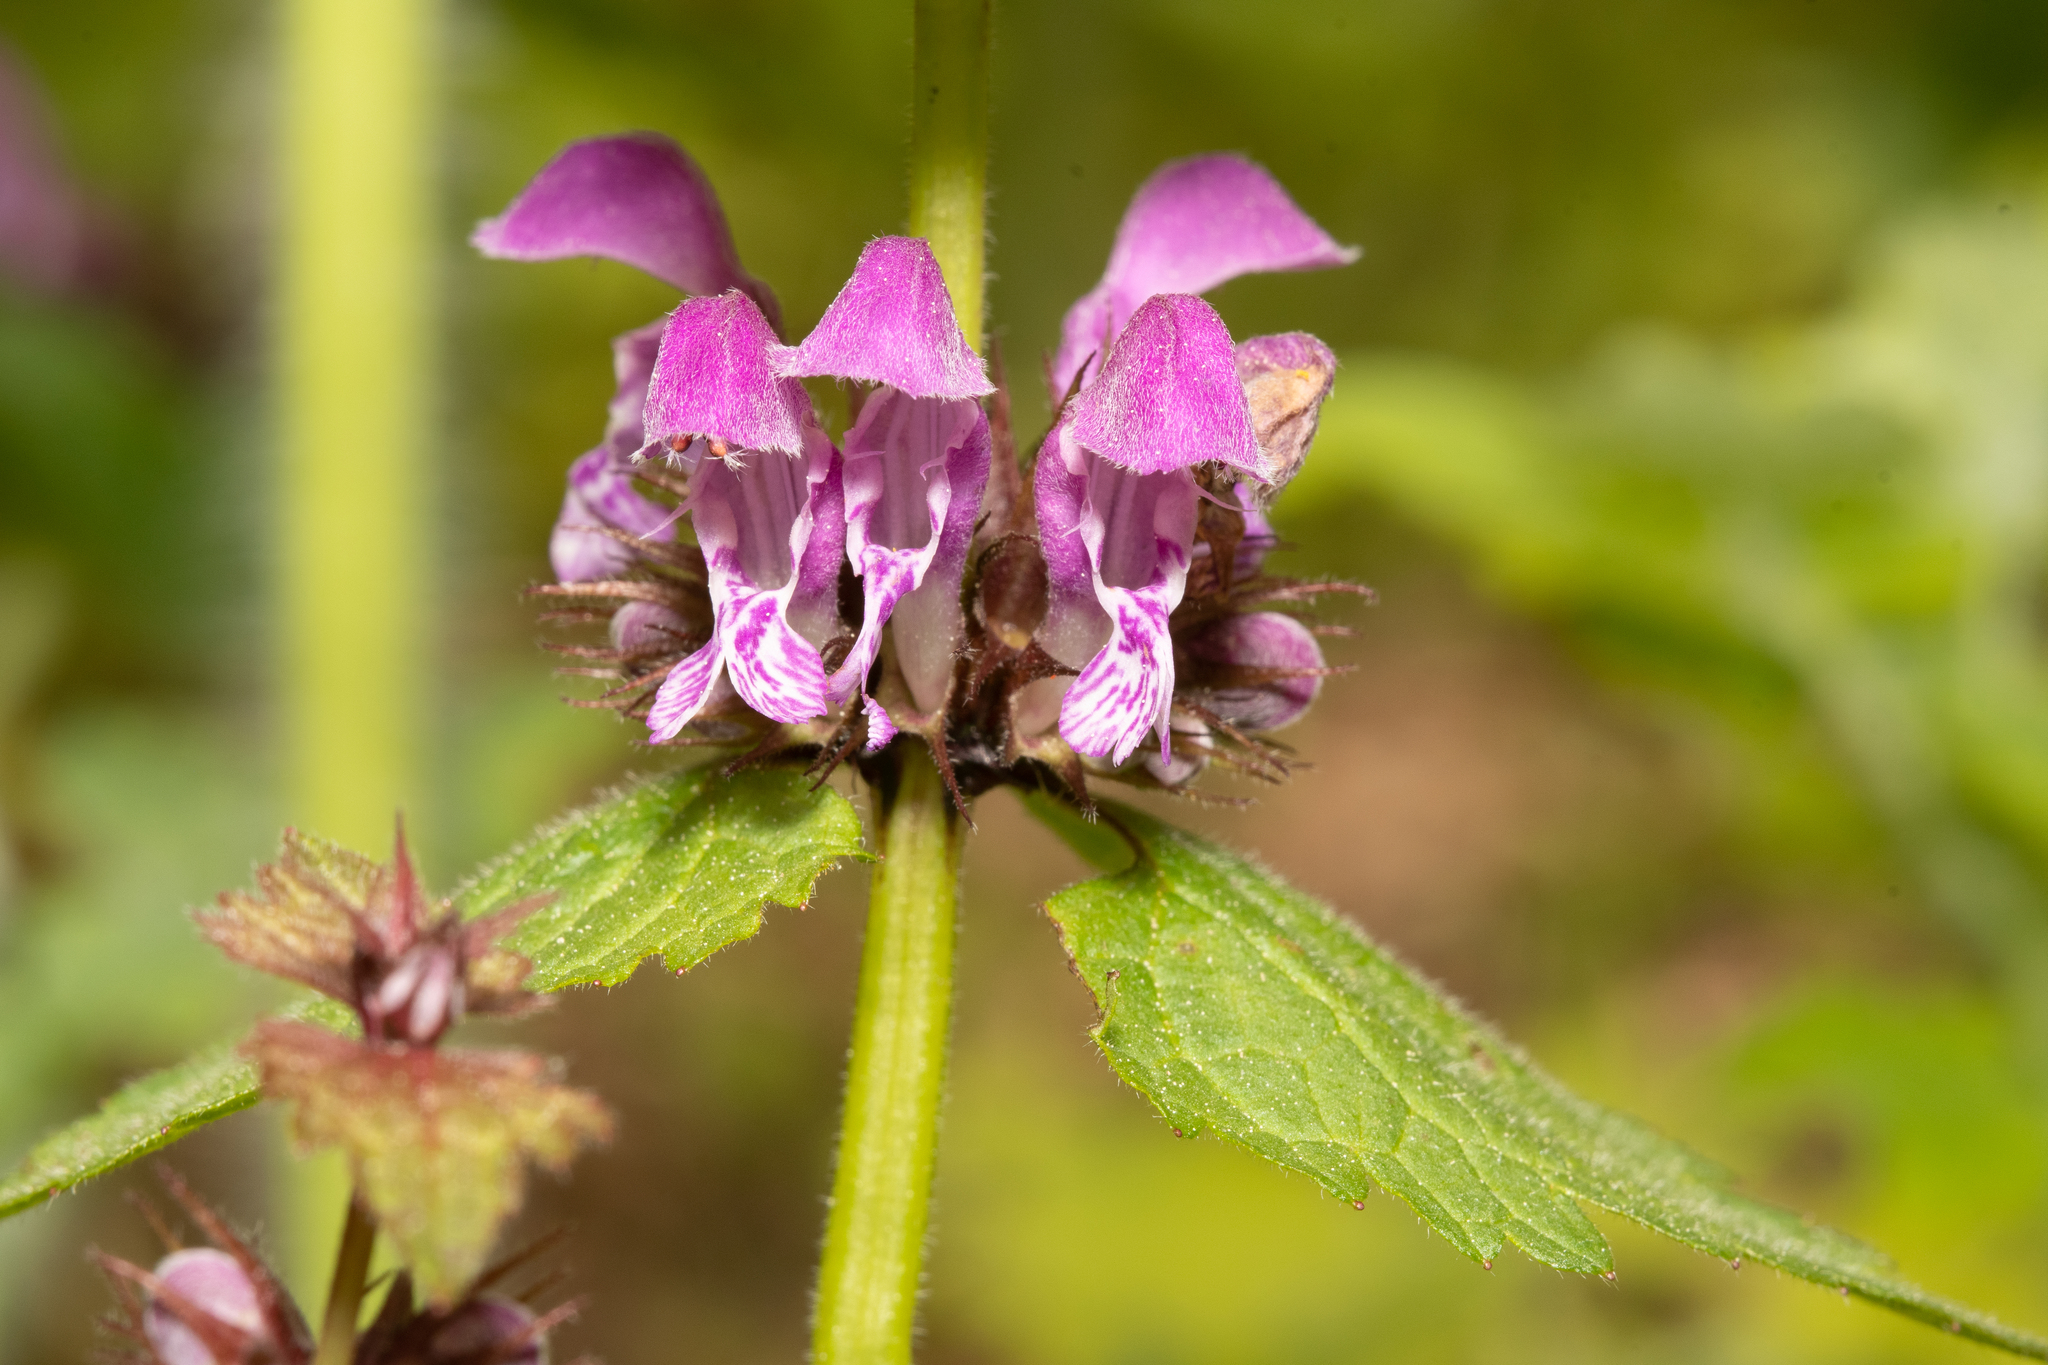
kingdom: Plantae
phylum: Tracheophyta
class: Magnoliopsida
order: Lamiales
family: Lamiaceae
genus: Lamium
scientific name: Lamium maculatum
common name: Spotted dead-nettle
